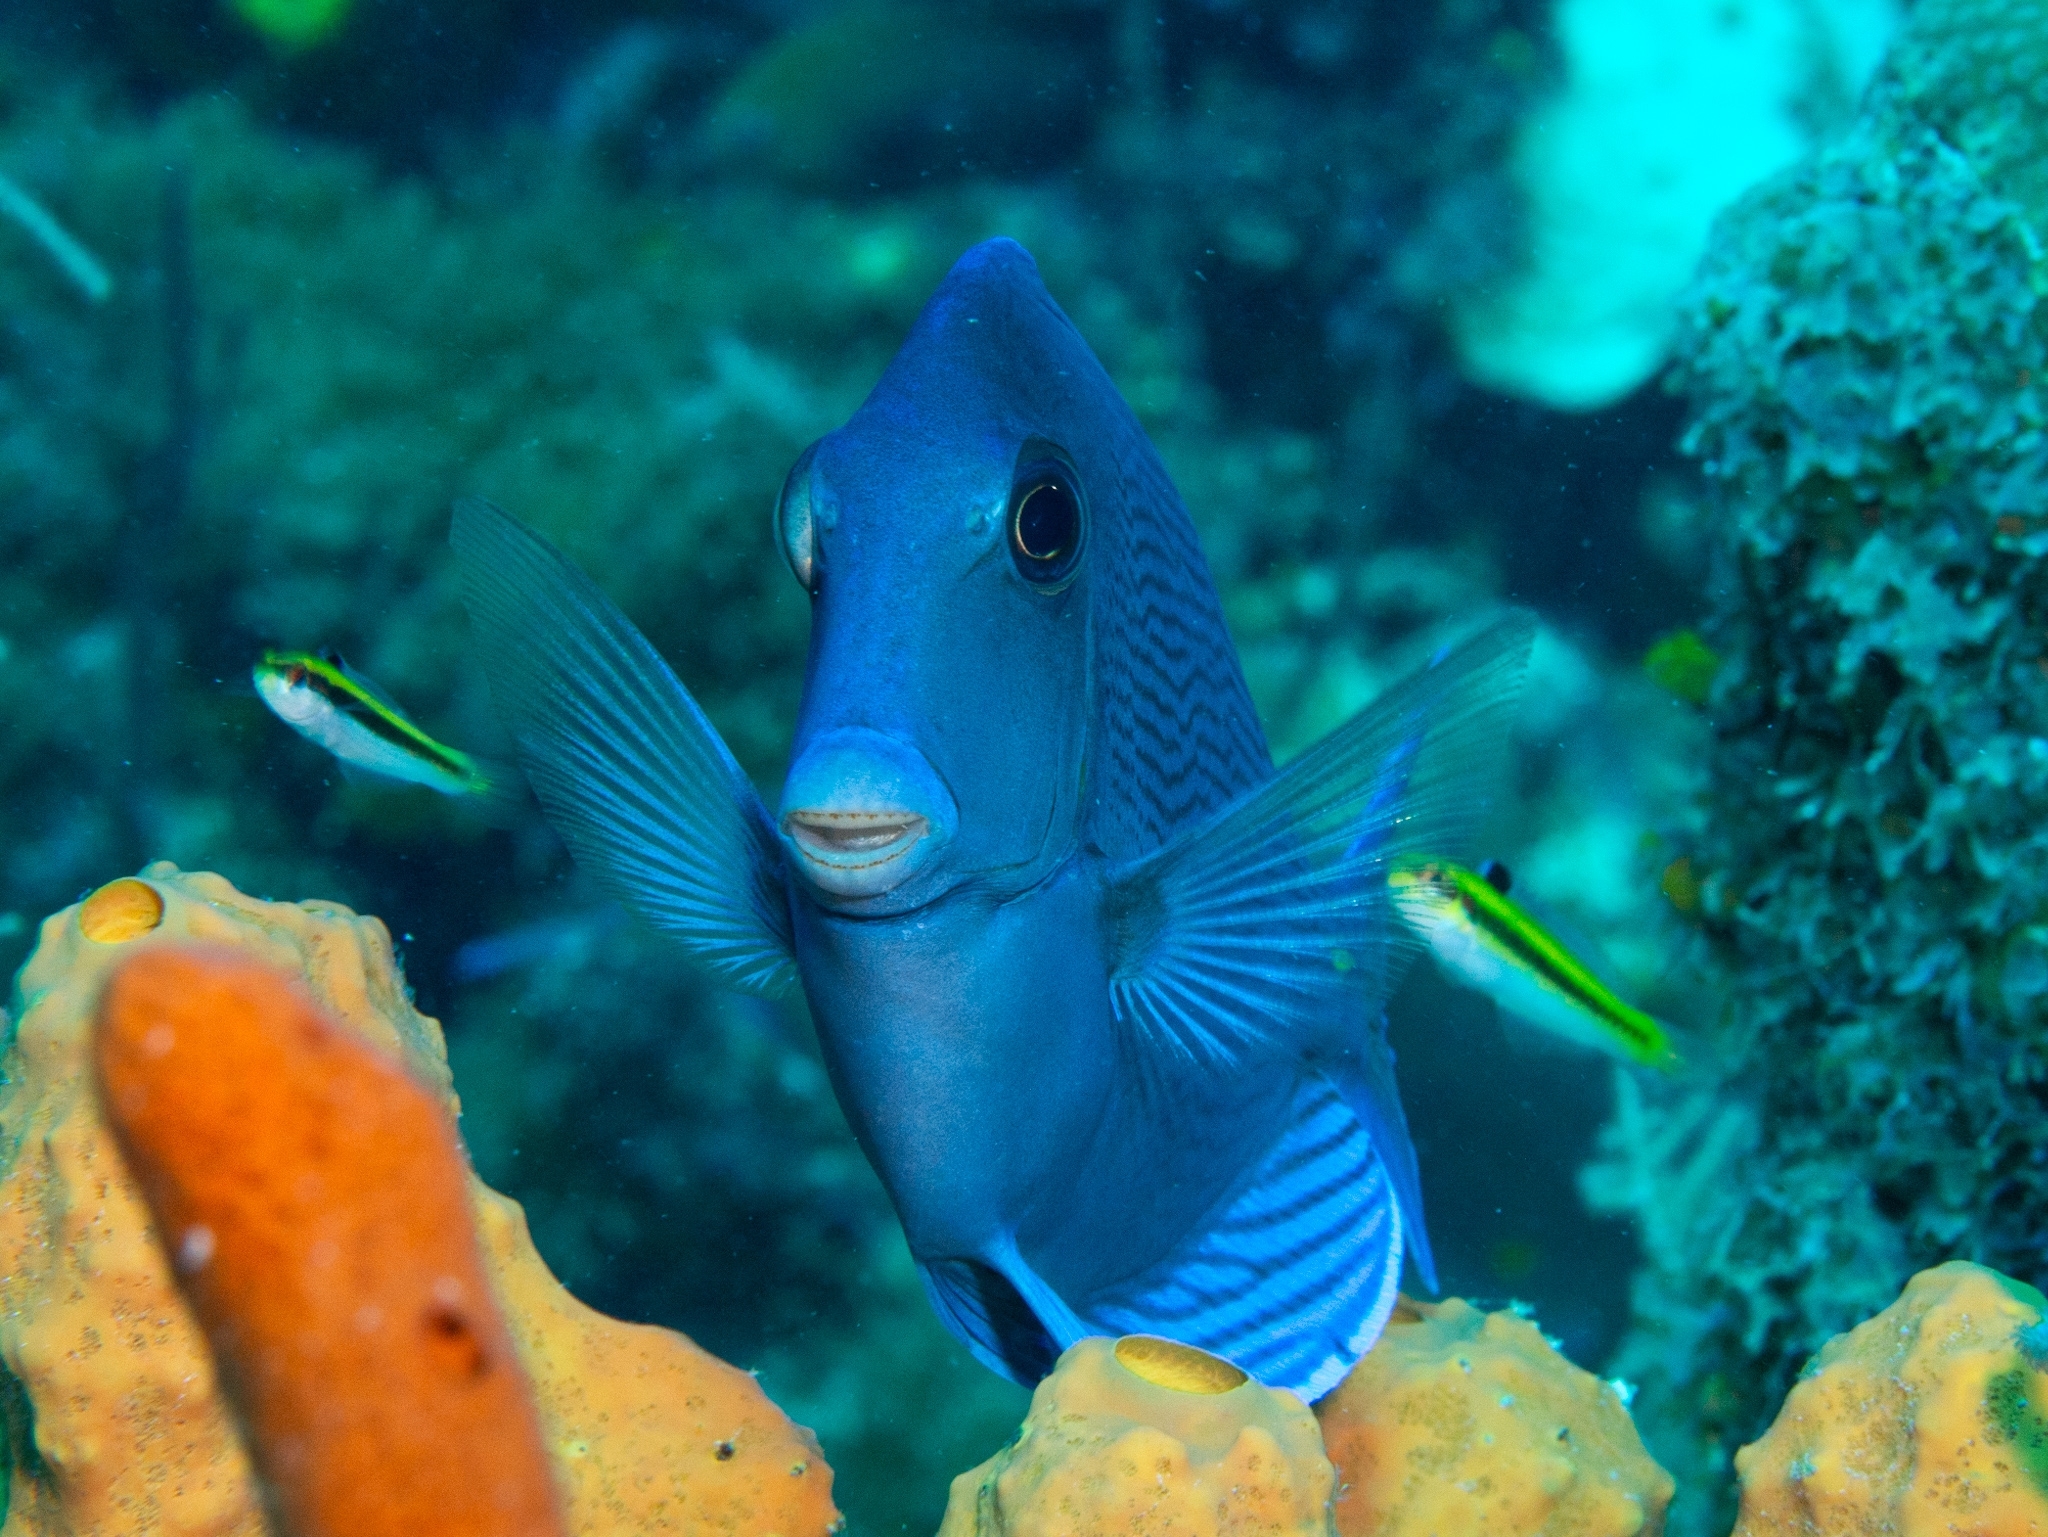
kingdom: Animalia
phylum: Chordata
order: Perciformes
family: Acanthuridae
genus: Acanthurus
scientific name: Acanthurus coeruleus
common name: Blue tang
